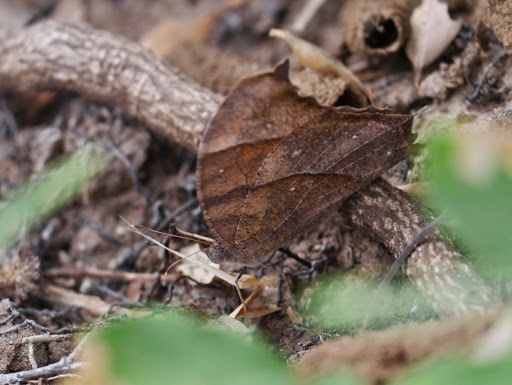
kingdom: Animalia
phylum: Arthropoda
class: Insecta
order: Lepidoptera
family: Nymphalidae
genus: Melanitis
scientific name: Melanitis leda
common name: Twilight brown
